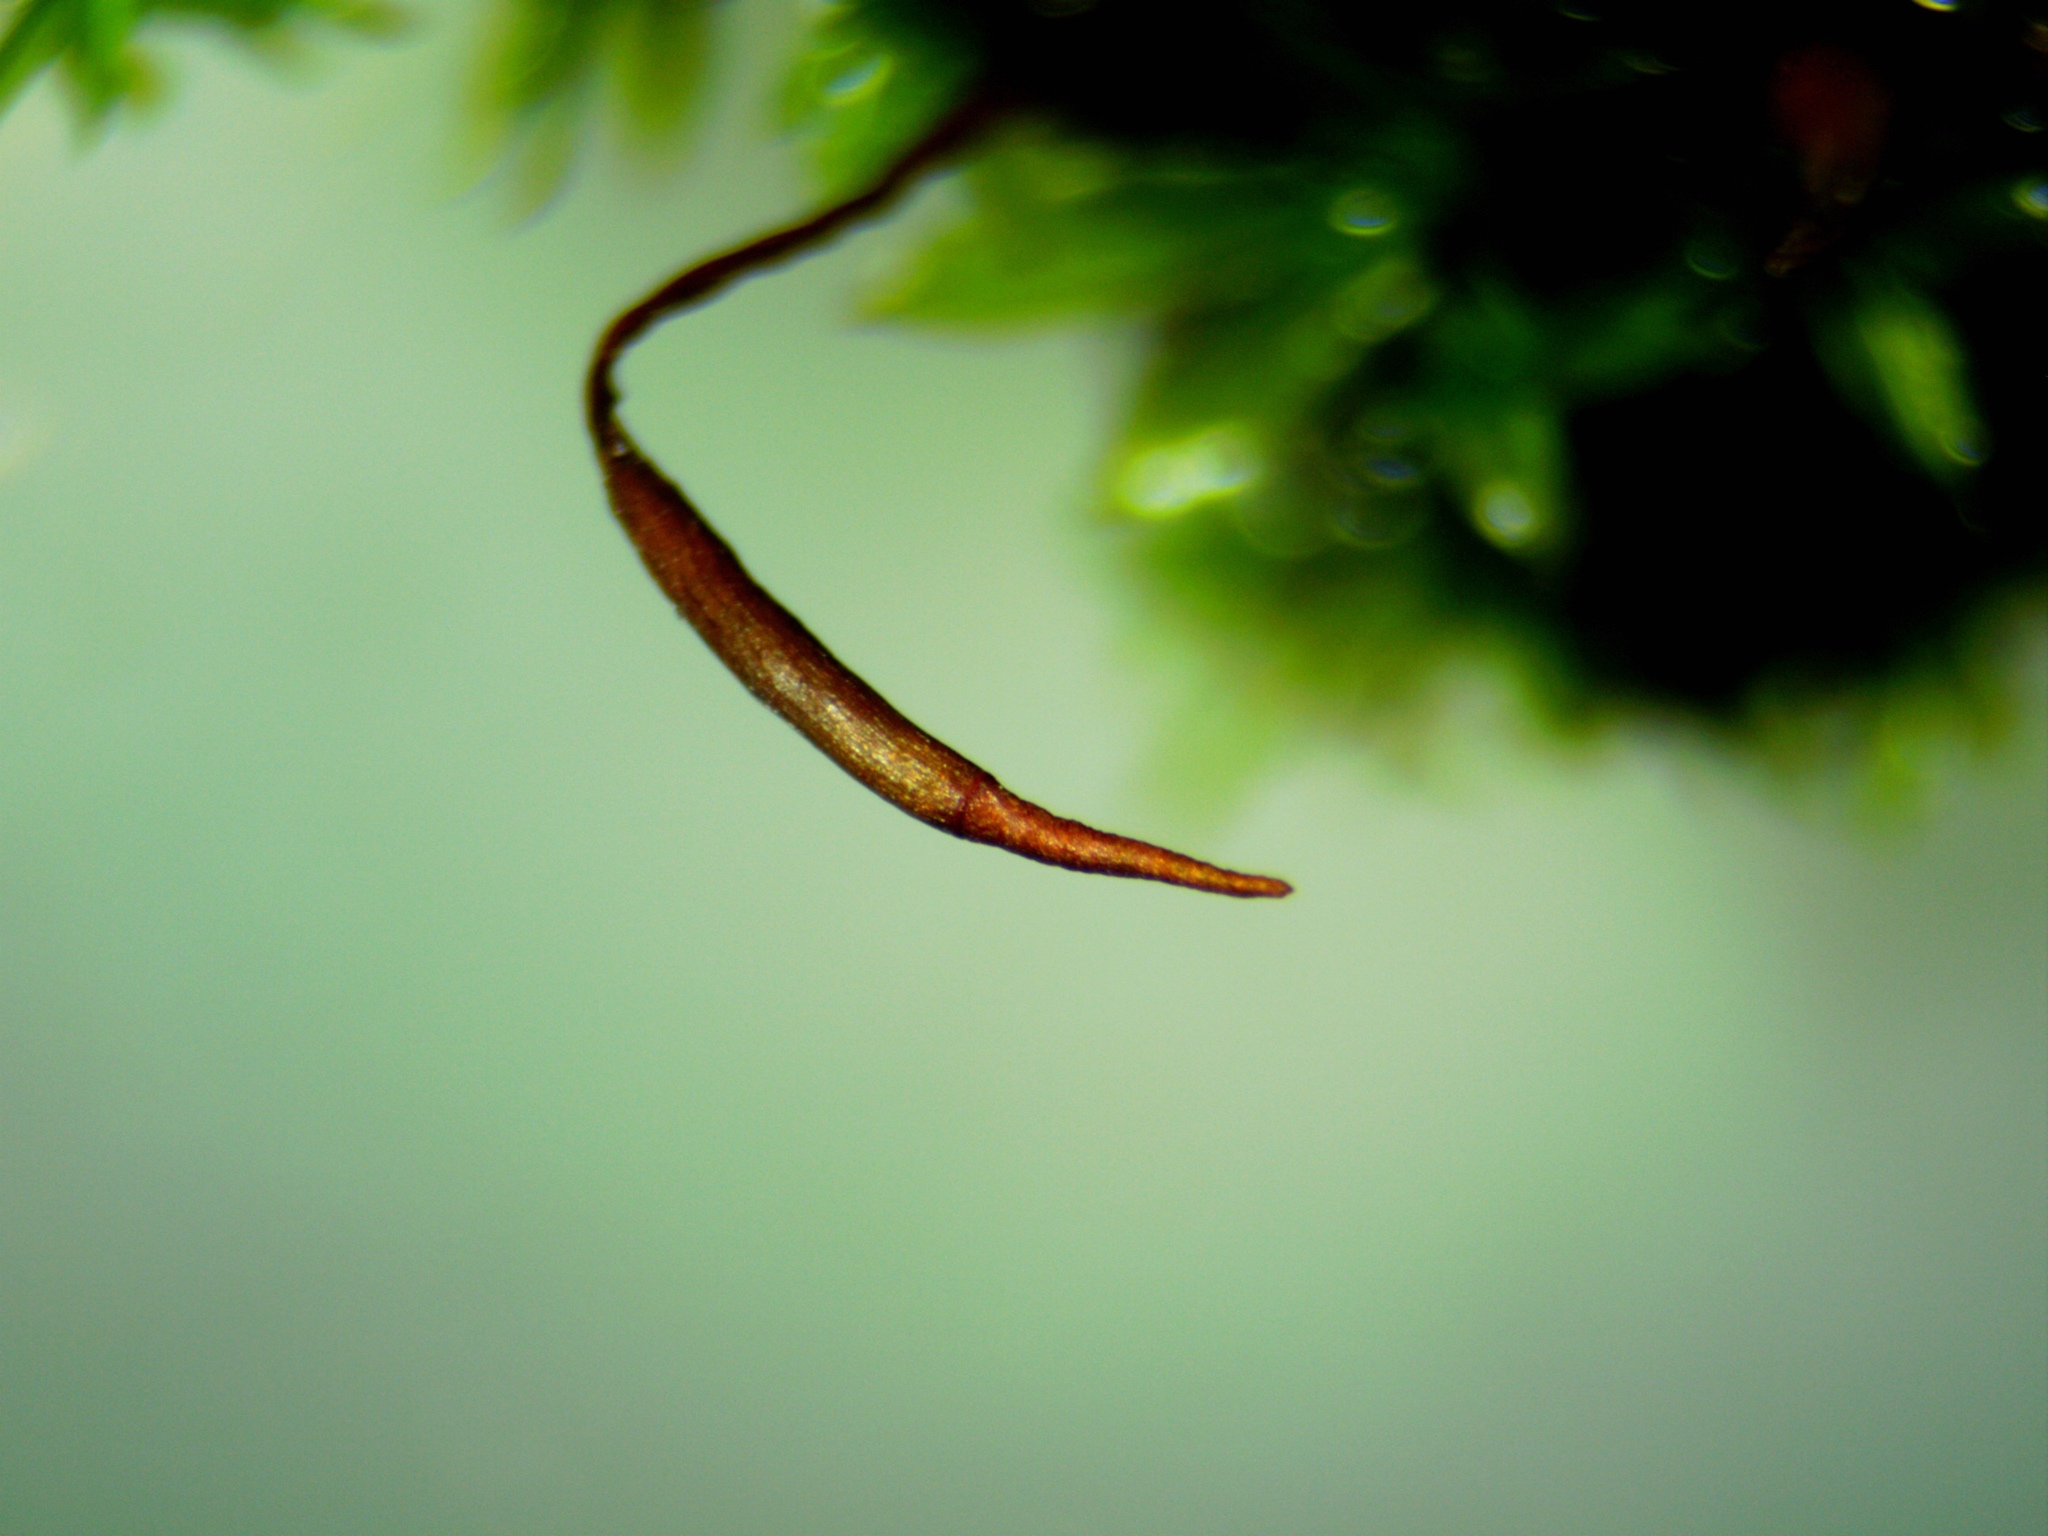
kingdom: Plantae
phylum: Bryophyta
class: Bryopsida
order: Pottiales
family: Pottiaceae
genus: Tortula
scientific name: Tortula subulata
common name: Upright screw-moss
